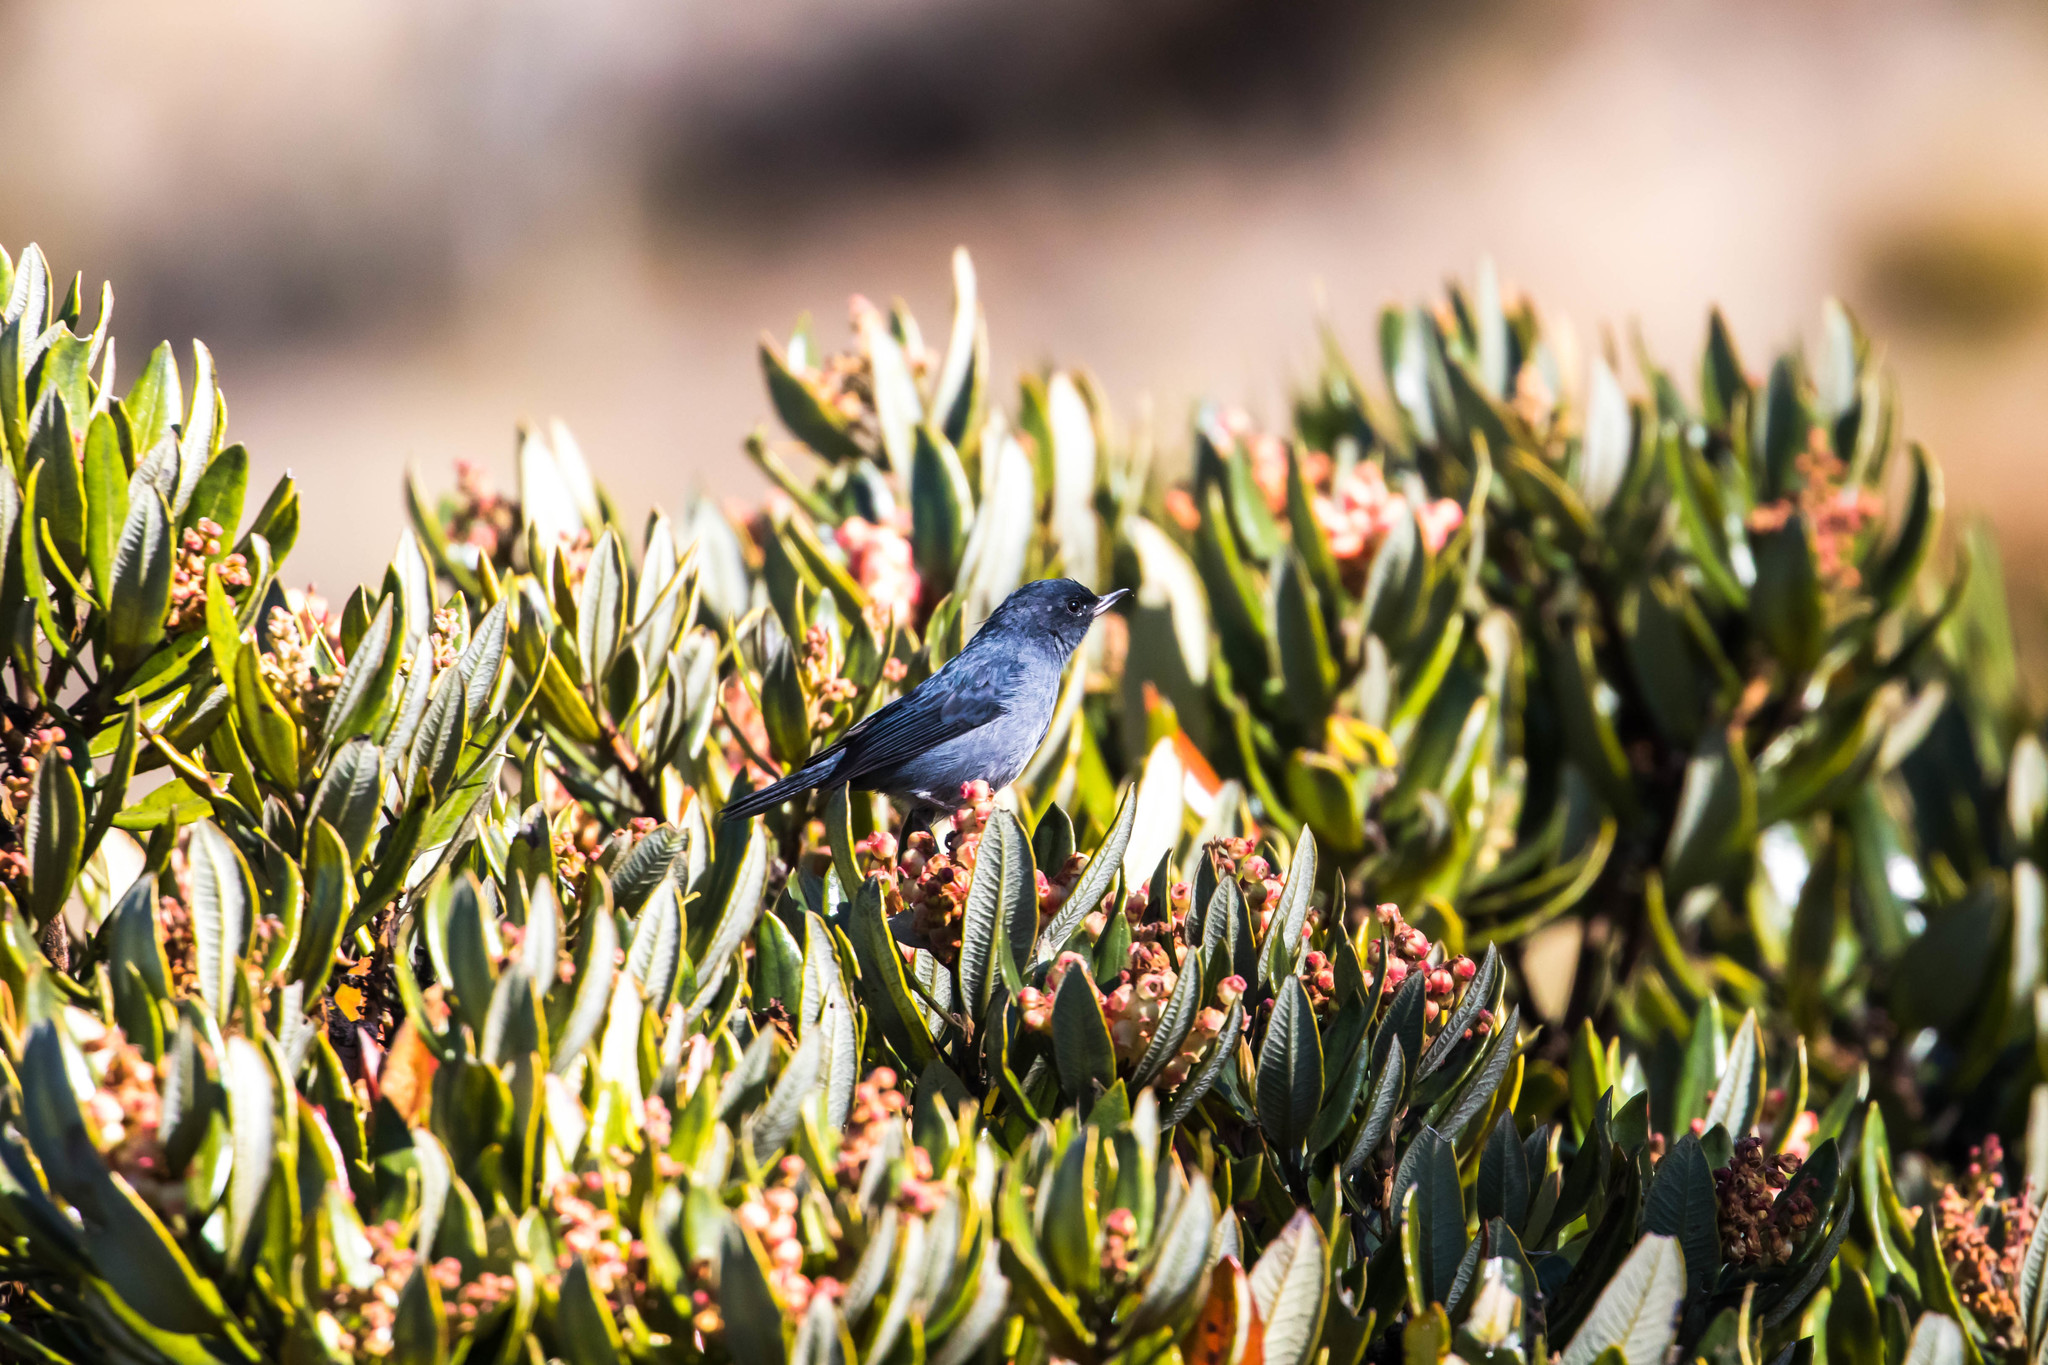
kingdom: Animalia
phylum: Chordata
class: Aves
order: Passeriformes
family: Thraupidae
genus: Diglossa
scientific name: Diglossa plumbea
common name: Slaty flowerpiercer
